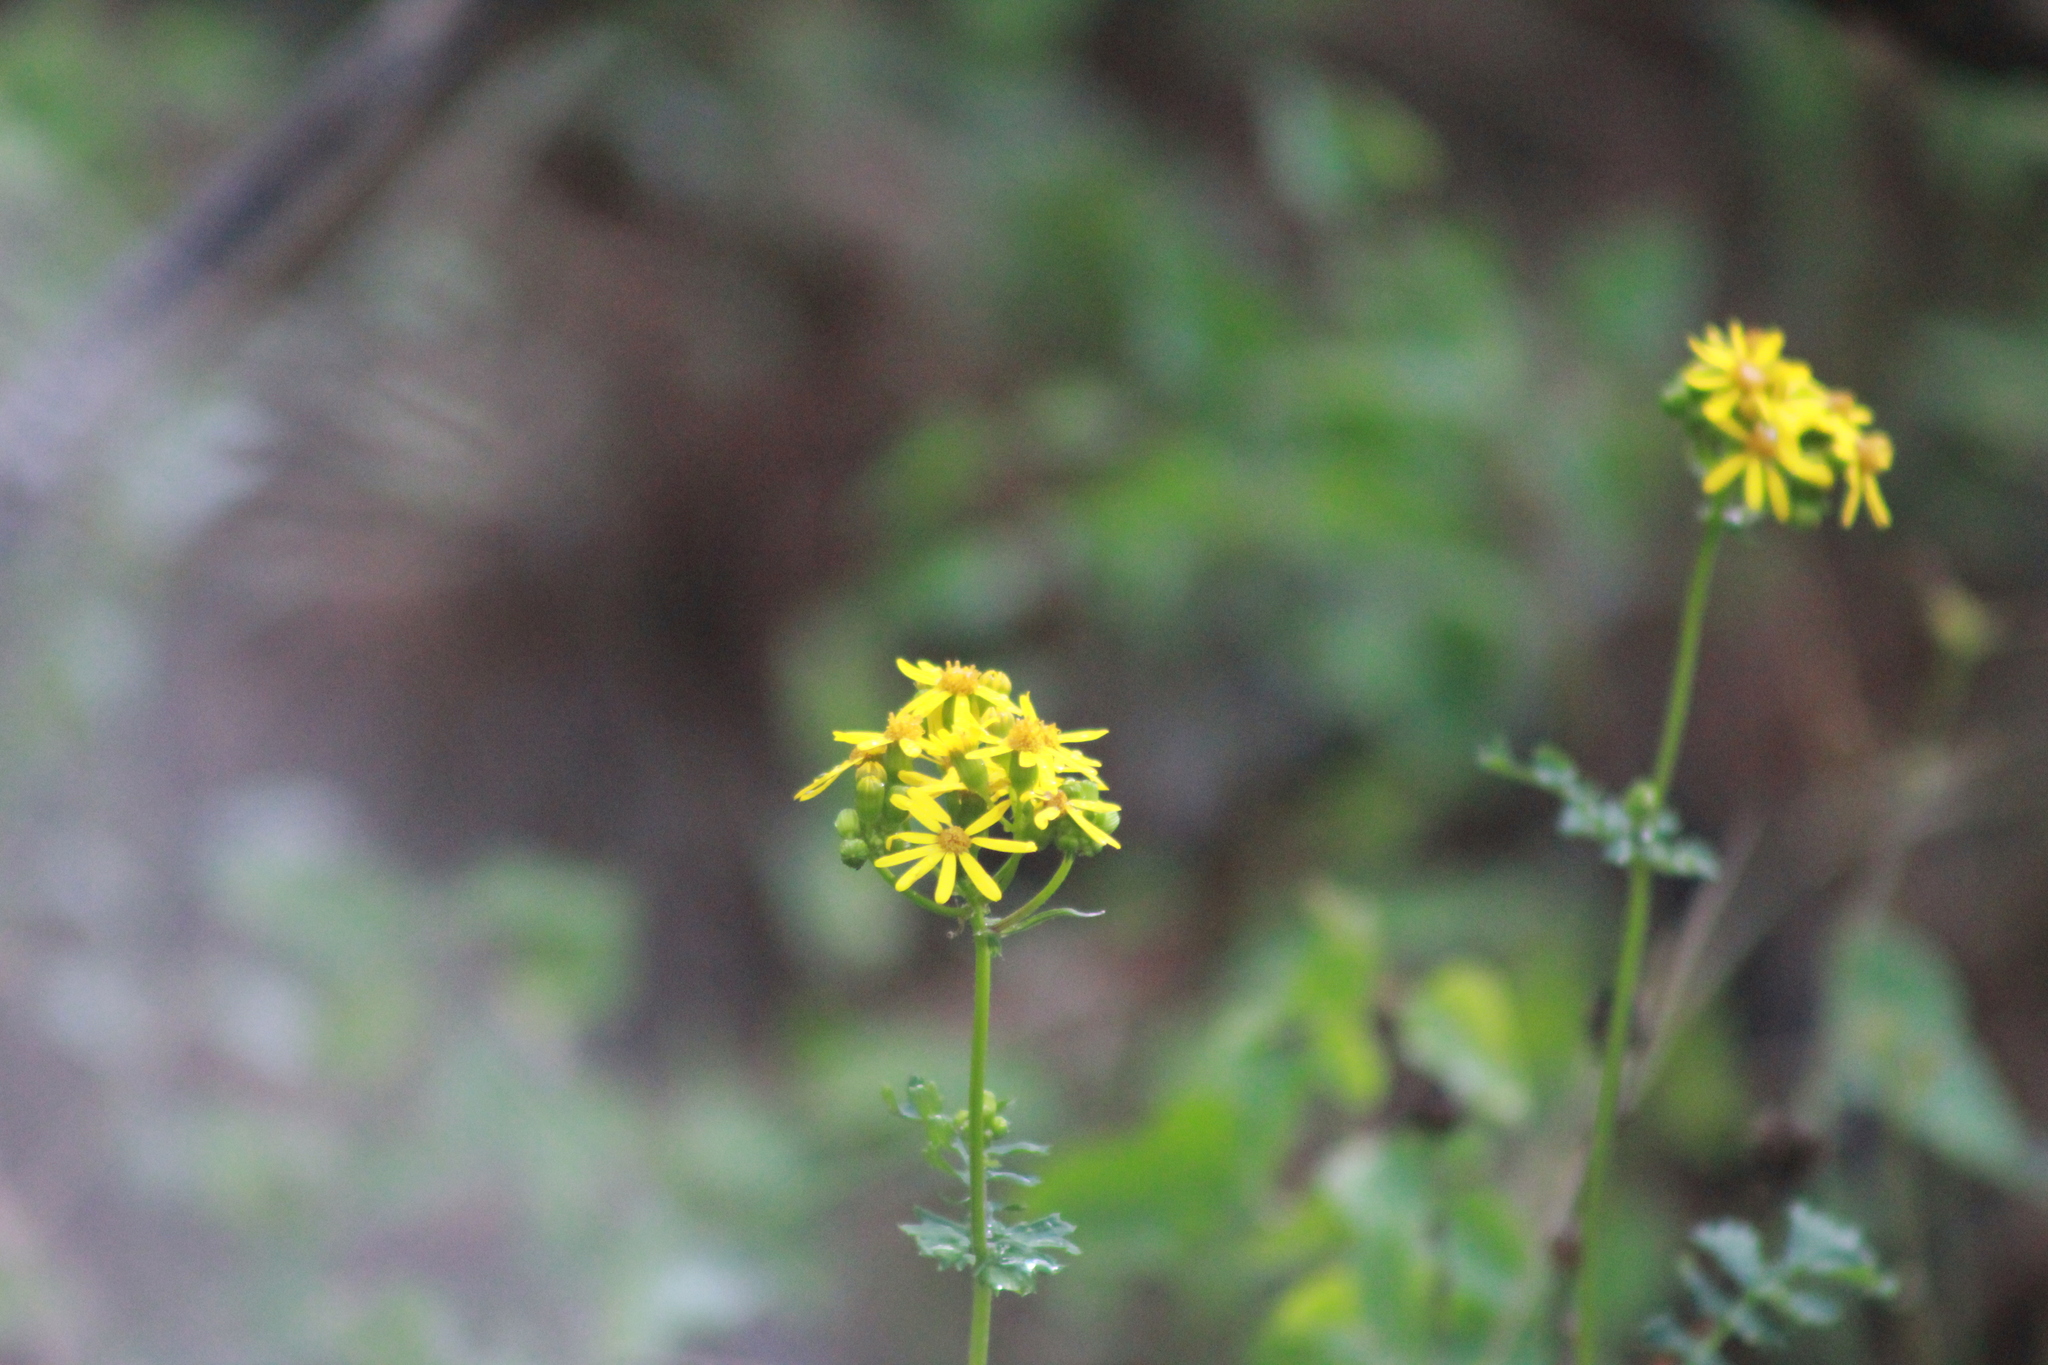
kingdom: Plantae
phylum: Tracheophyta
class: Magnoliopsida
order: Asterales
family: Asteraceae
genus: Packera
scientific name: Packera montereyana
